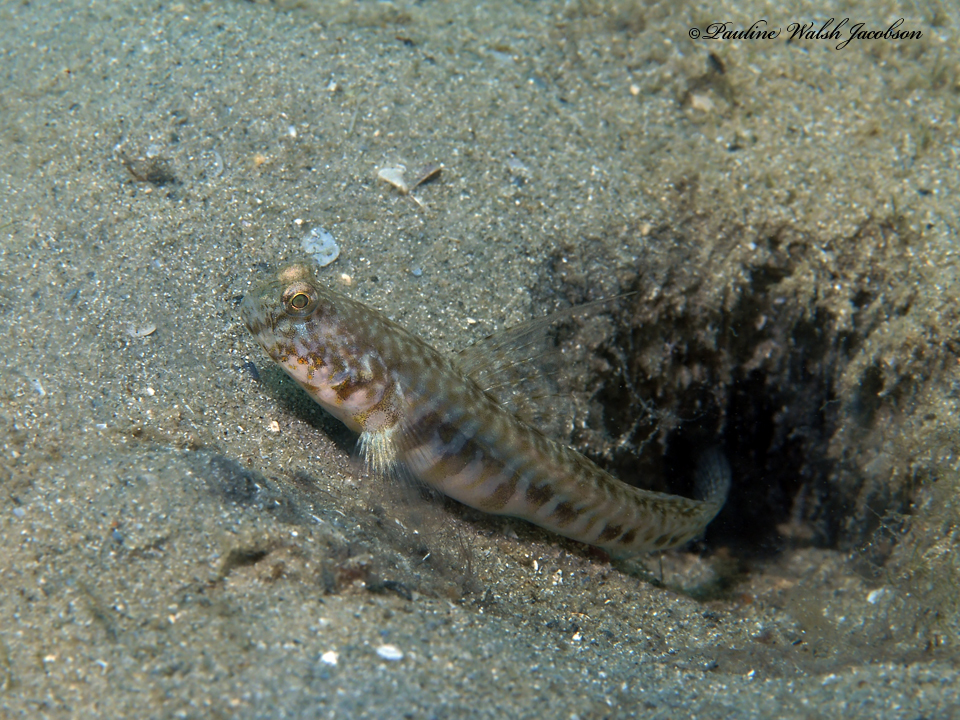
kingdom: Animalia
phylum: Chordata
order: Perciformes
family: Gobiidae
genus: Nes
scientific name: Nes longus
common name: Orangespotted goby
